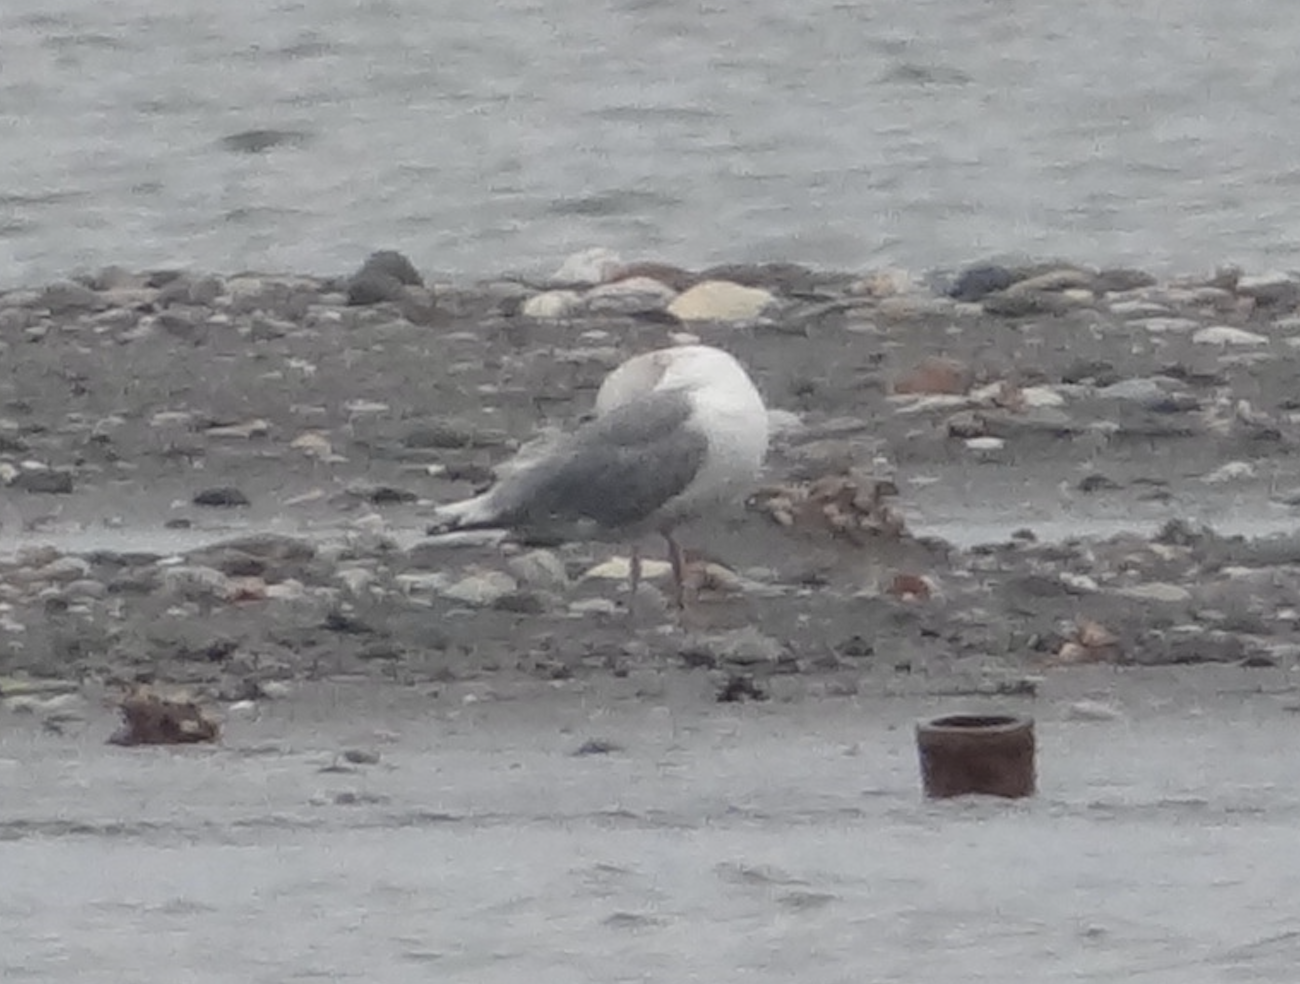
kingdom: Animalia
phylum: Chordata
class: Aves
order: Charadriiformes
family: Laridae
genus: Larus
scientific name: Larus crassirostris
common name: Black-tailed gull
